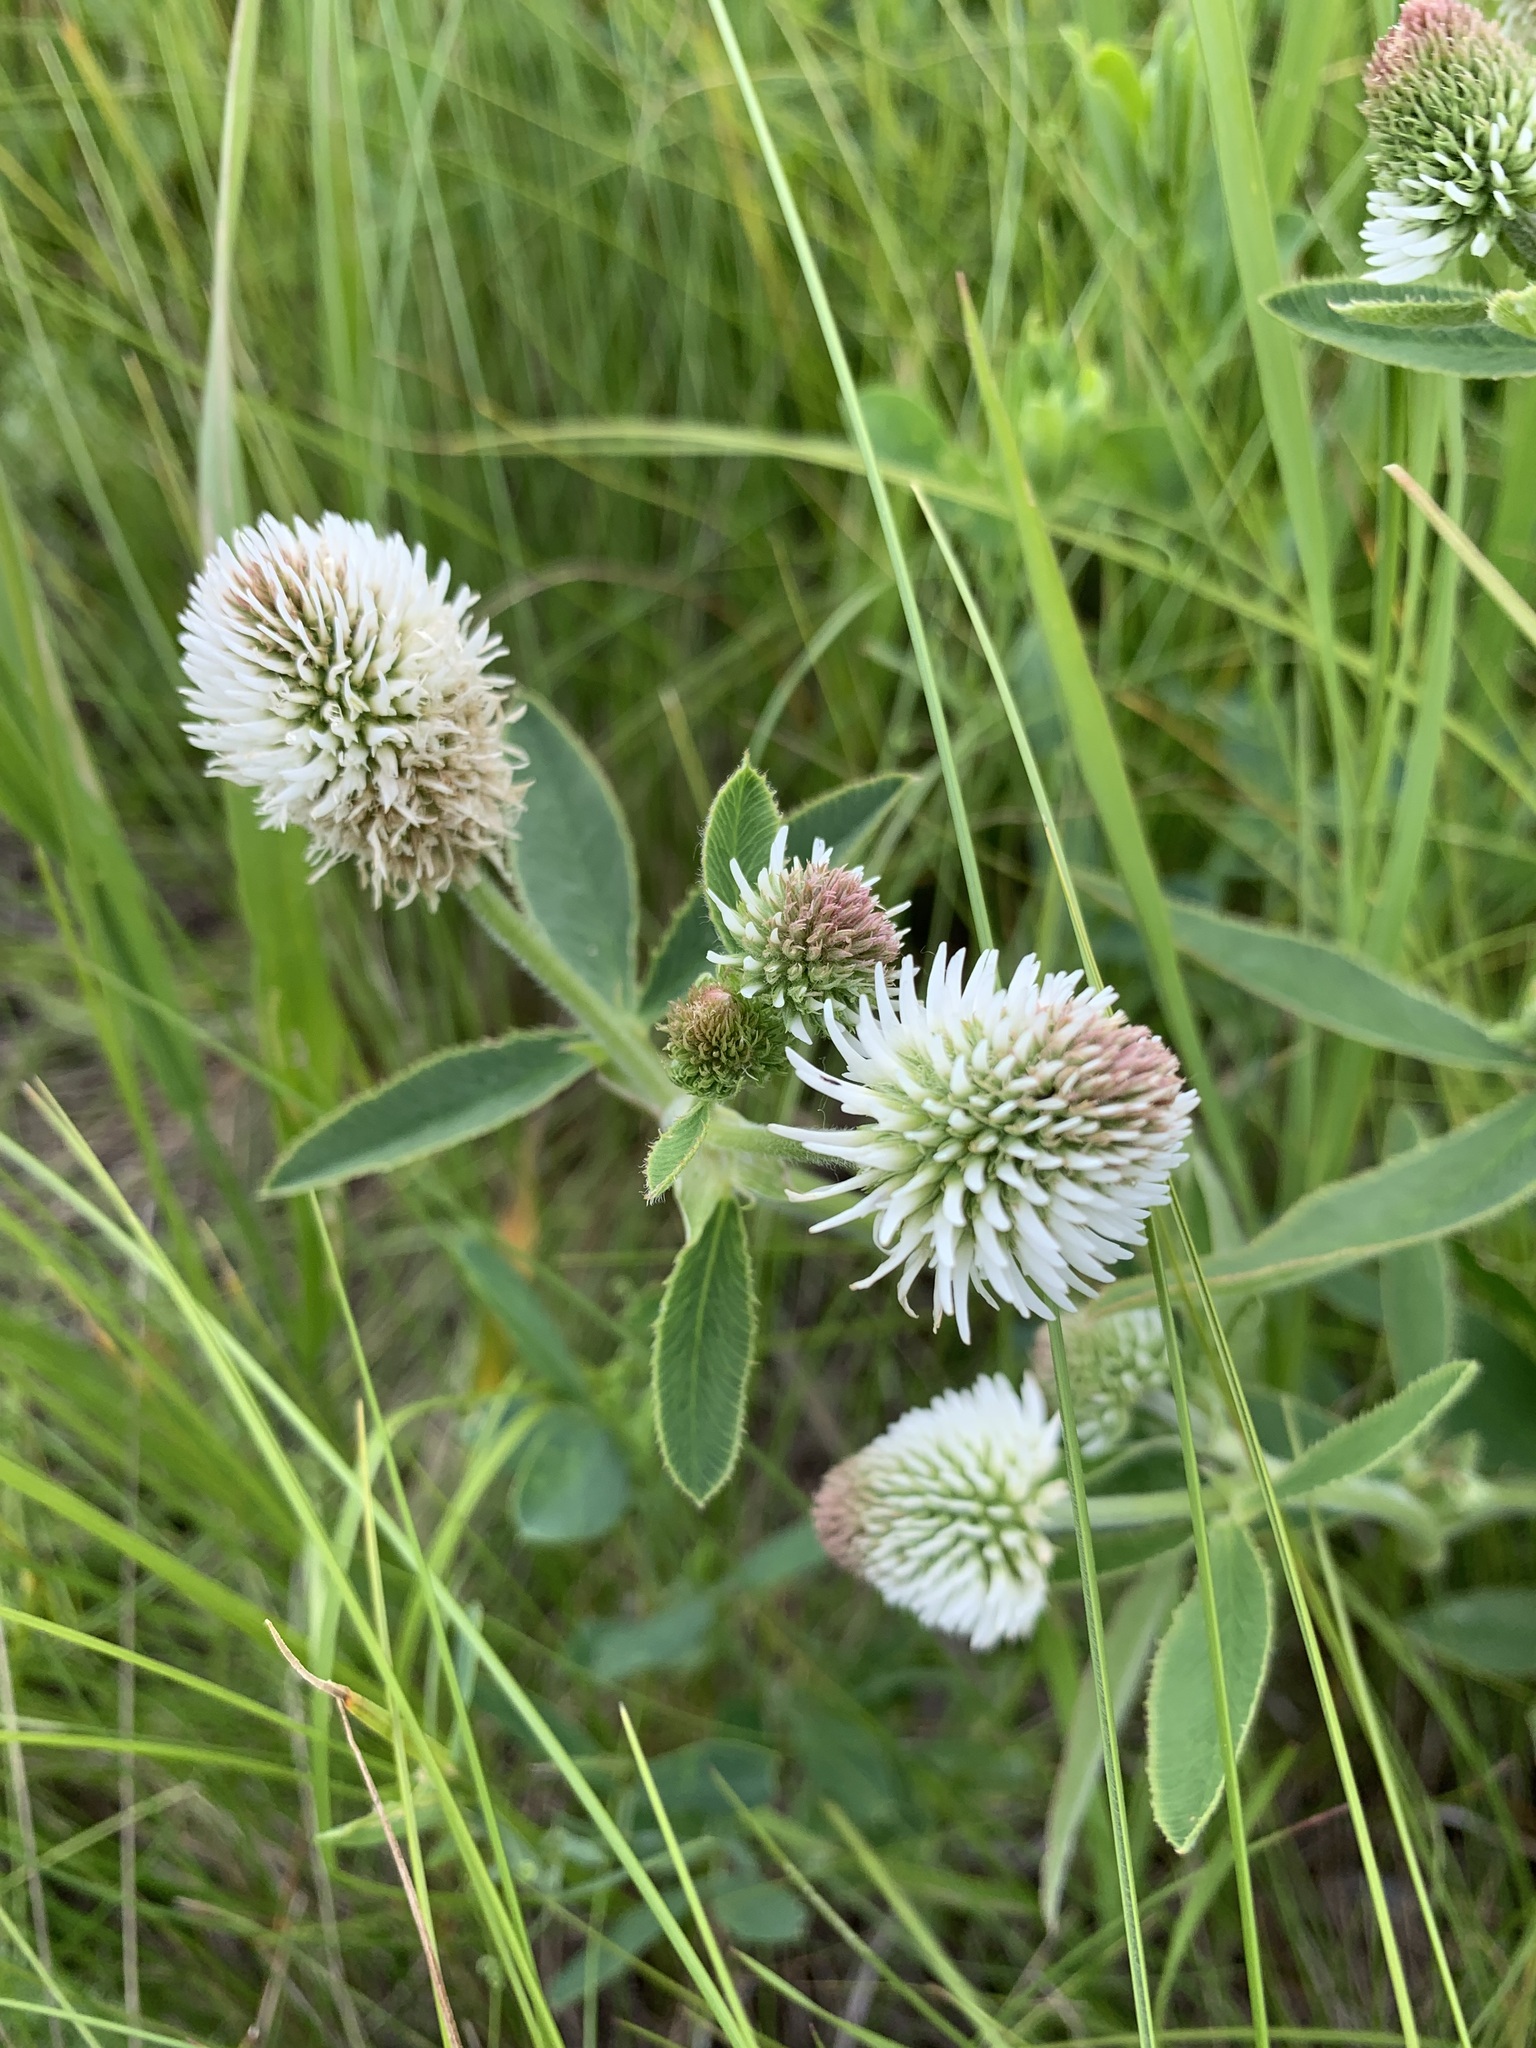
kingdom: Plantae
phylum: Tracheophyta
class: Magnoliopsida
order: Fabales
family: Fabaceae
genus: Trifolium
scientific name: Trifolium montanum
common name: Mountain clover
